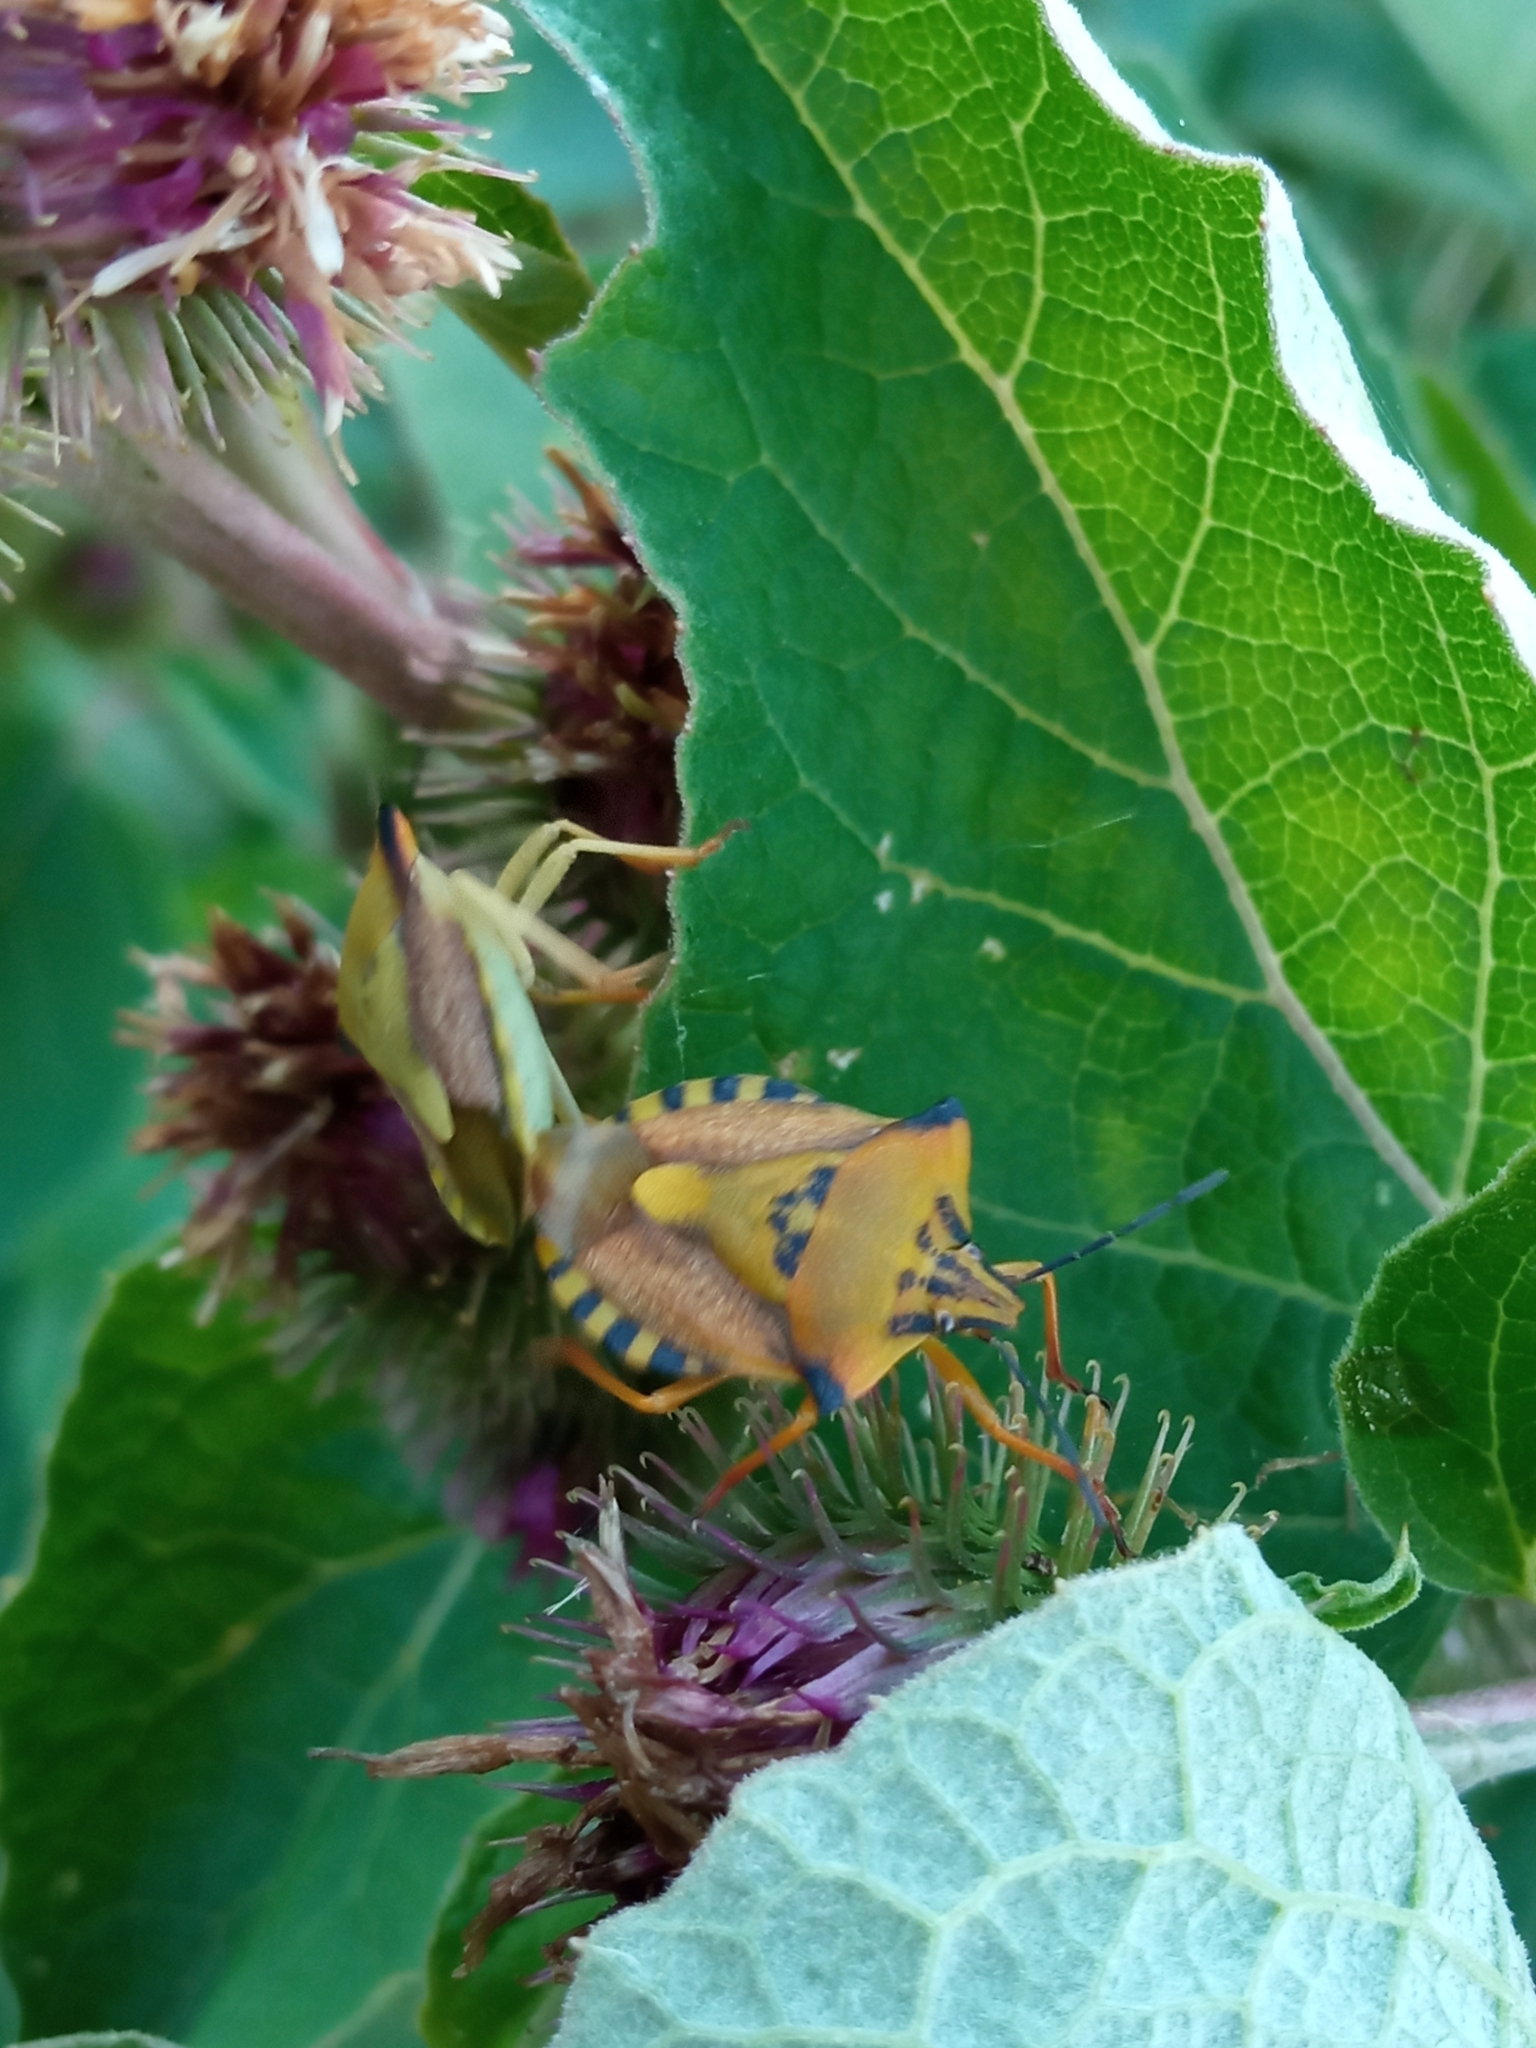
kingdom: Animalia
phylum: Arthropoda
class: Insecta
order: Hemiptera
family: Pentatomidae
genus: Carpocoris
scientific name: Carpocoris fuscispinus
